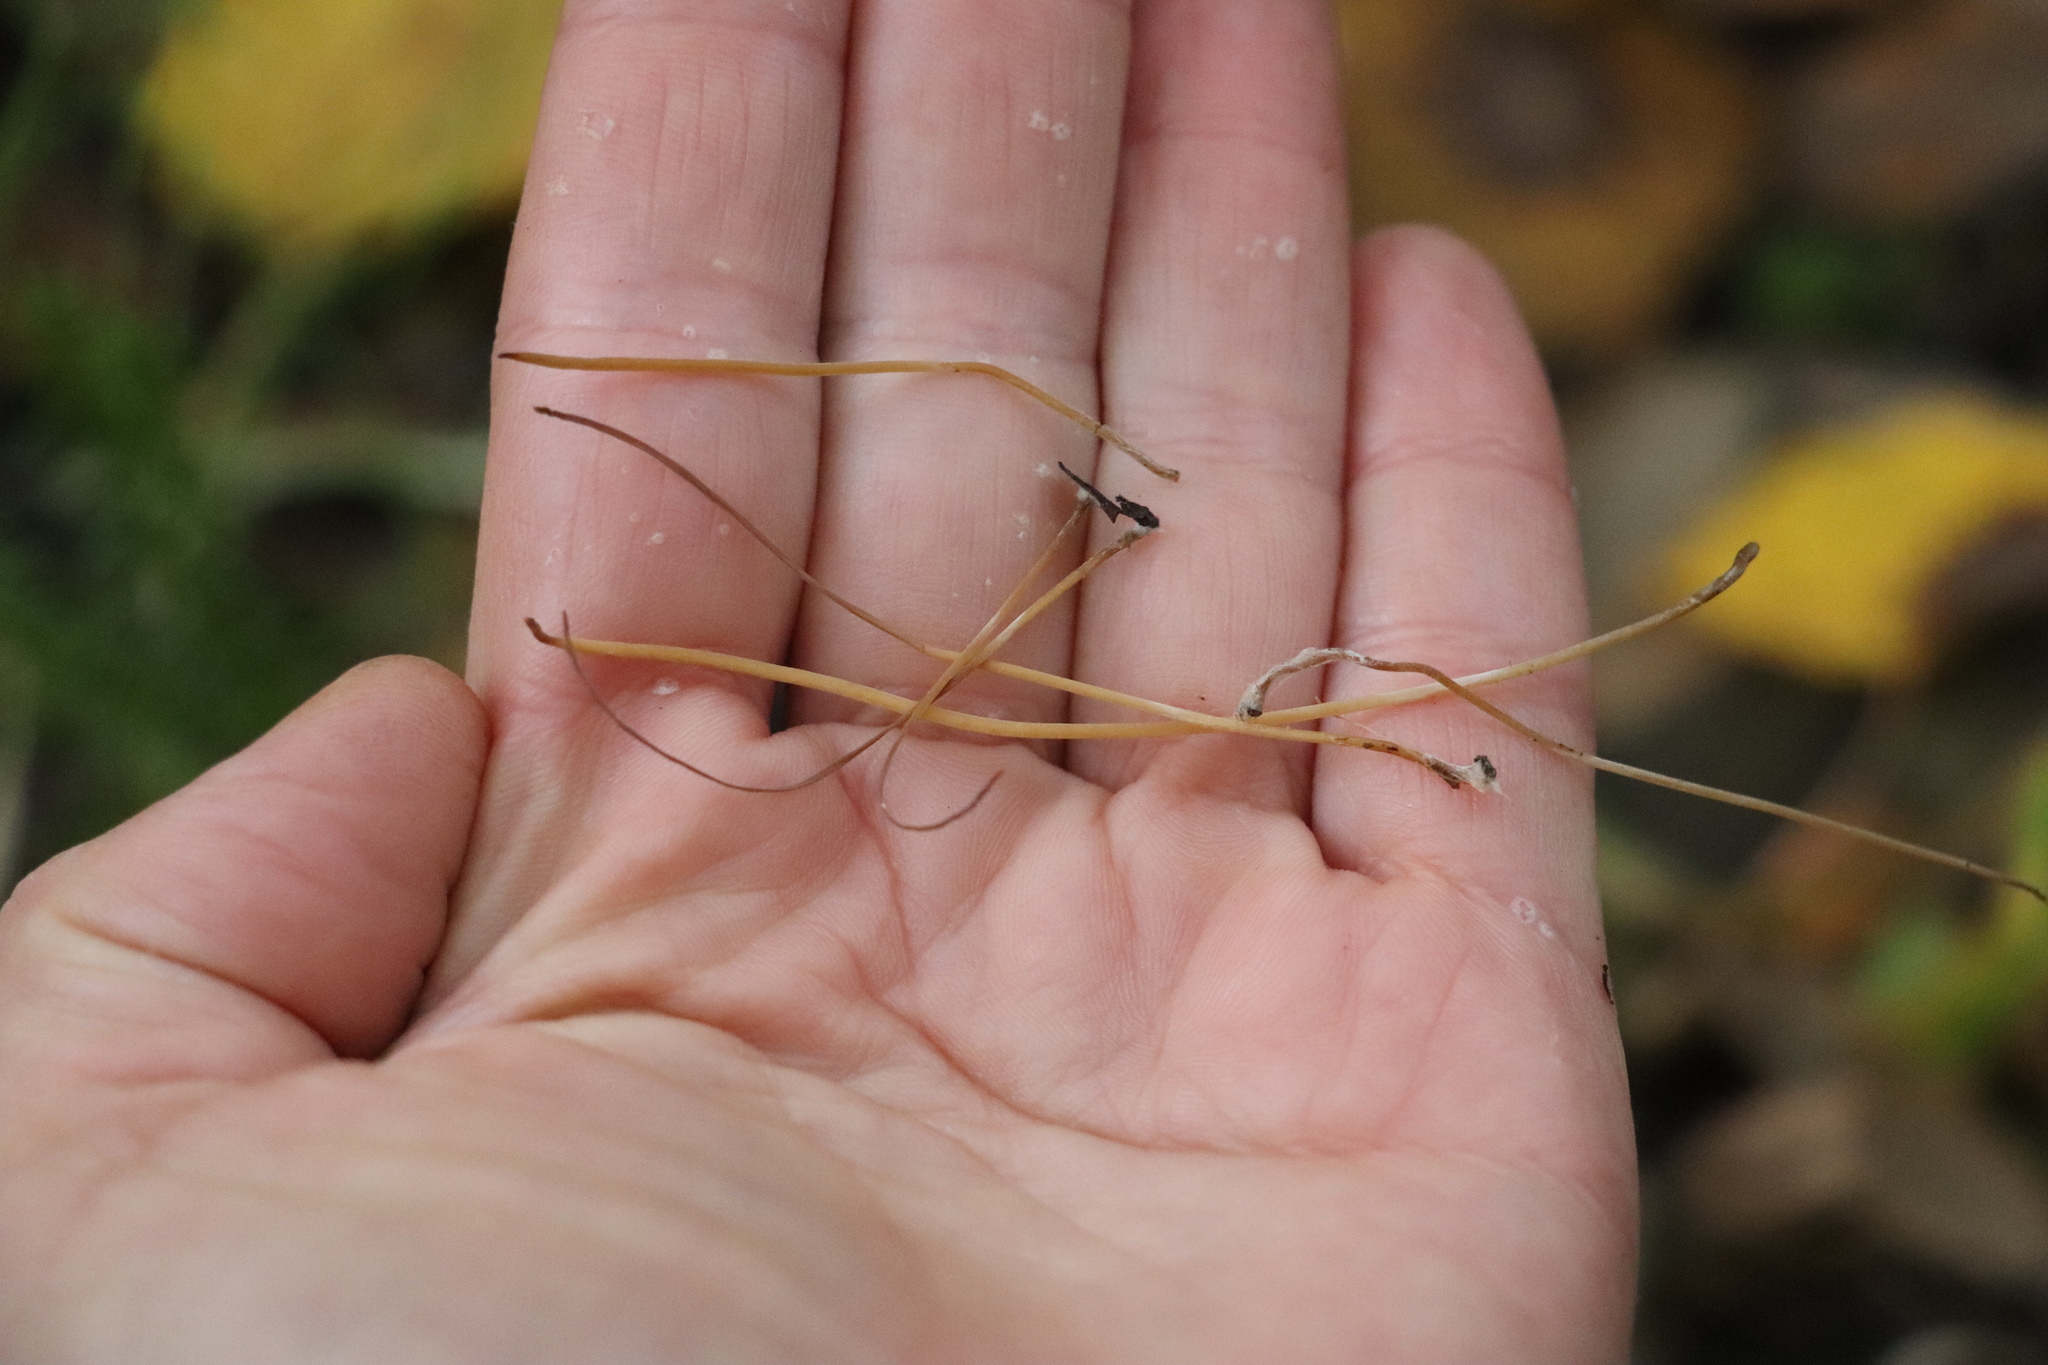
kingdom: Fungi
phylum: Basidiomycota
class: Agaricomycetes
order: Agaricales
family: Typhulaceae
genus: Typhula
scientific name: Typhula juncea
